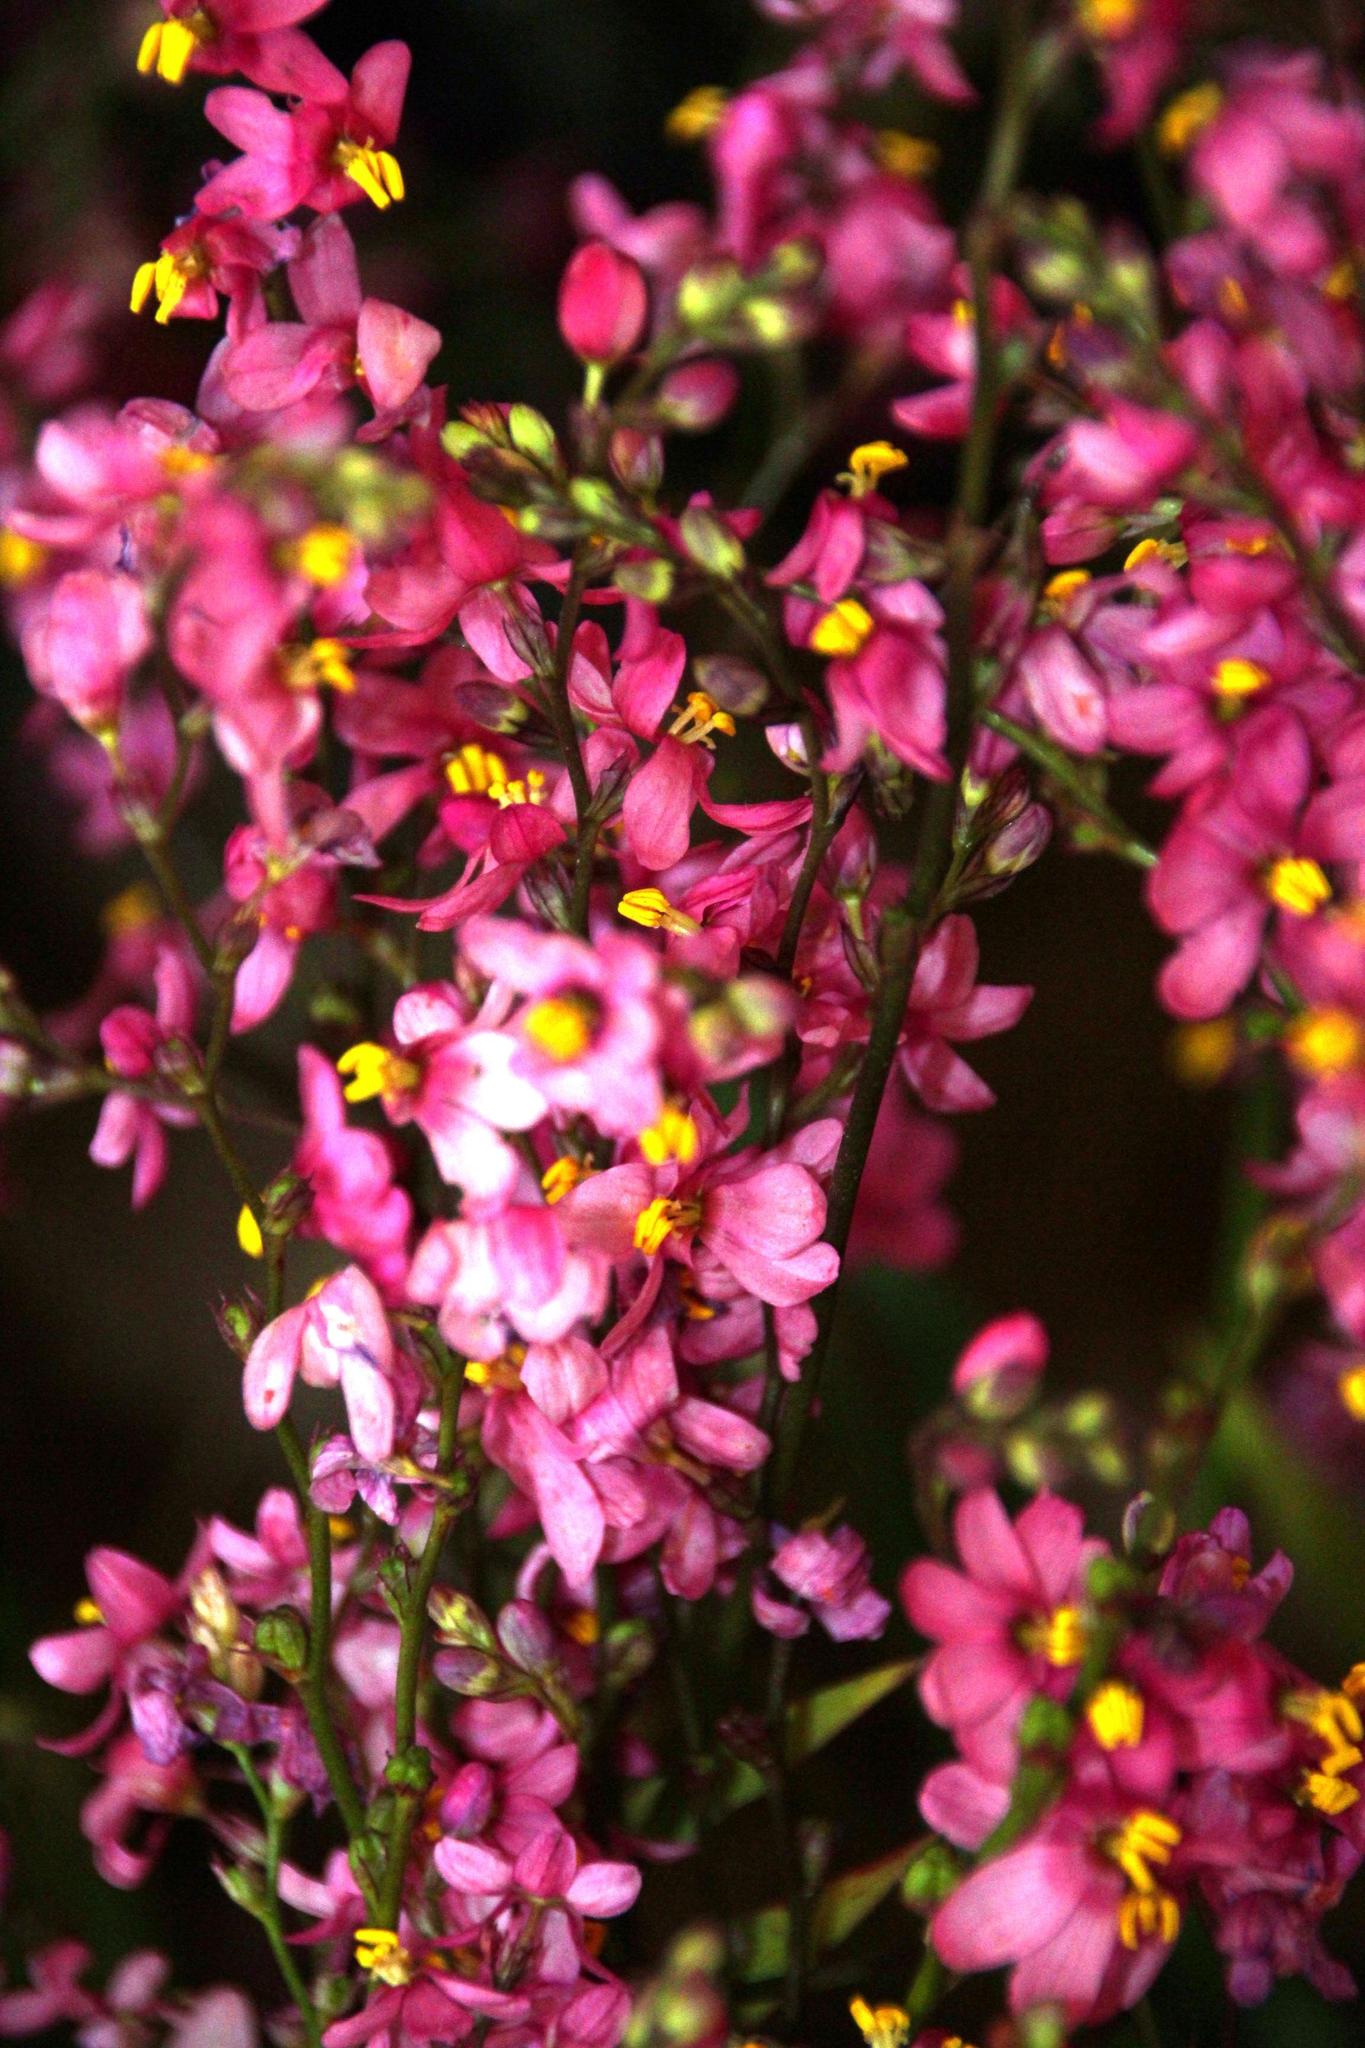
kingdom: Plantae
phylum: Tracheophyta
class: Liliopsida
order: Asparagales
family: Iridaceae
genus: Ixia
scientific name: Ixia scillaris
